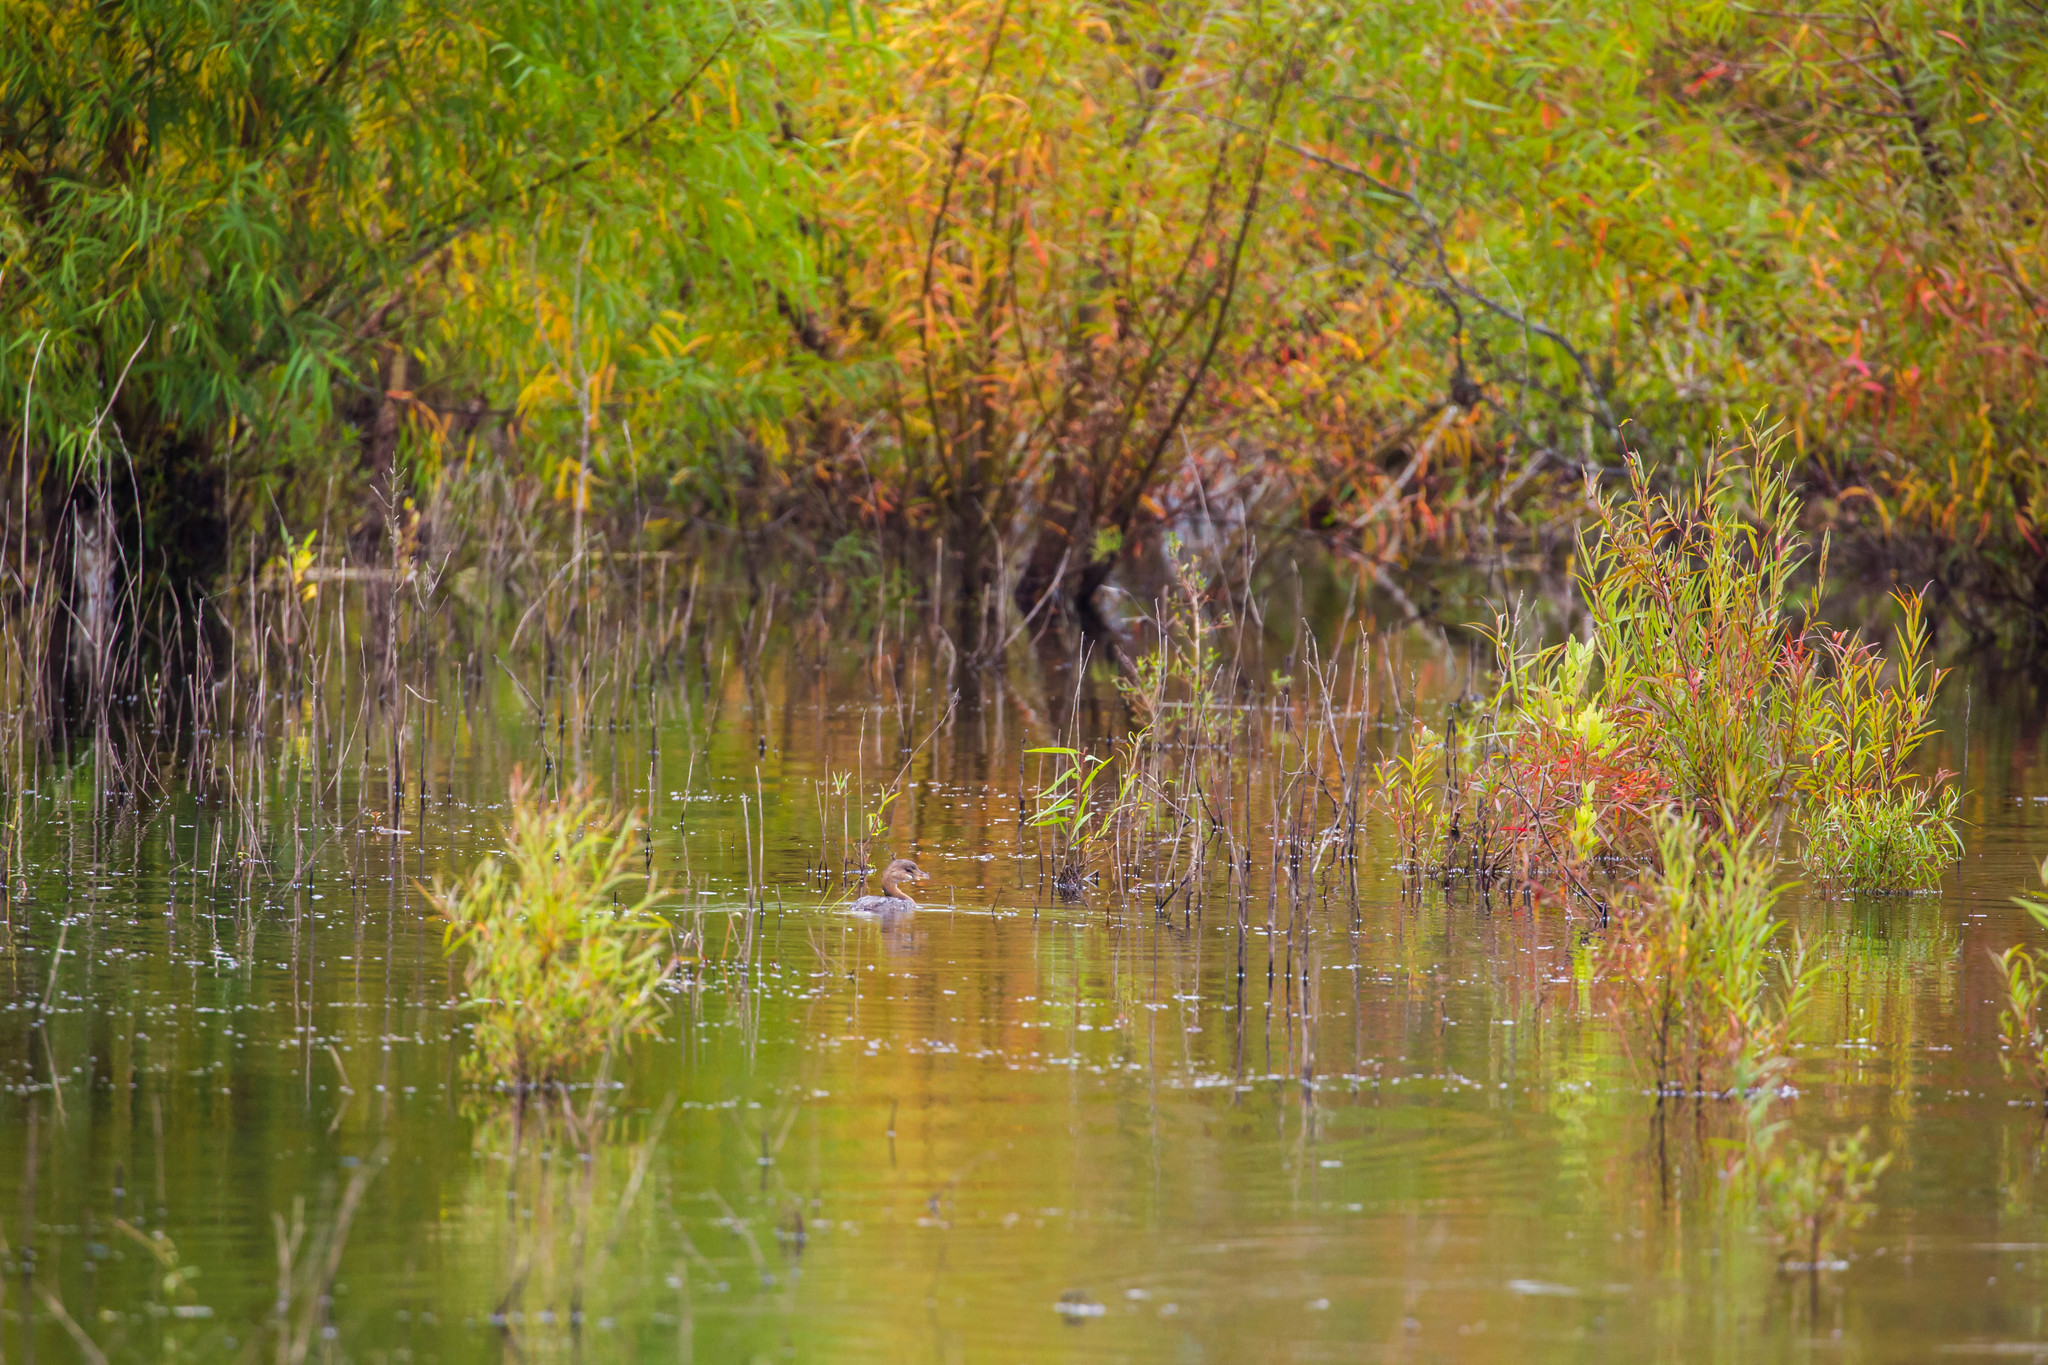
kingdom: Animalia
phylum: Chordata
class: Aves
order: Podicipediformes
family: Podicipedidae
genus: Podilymbus
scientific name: Podilymbus podiceps
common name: Pied-billed grebe
